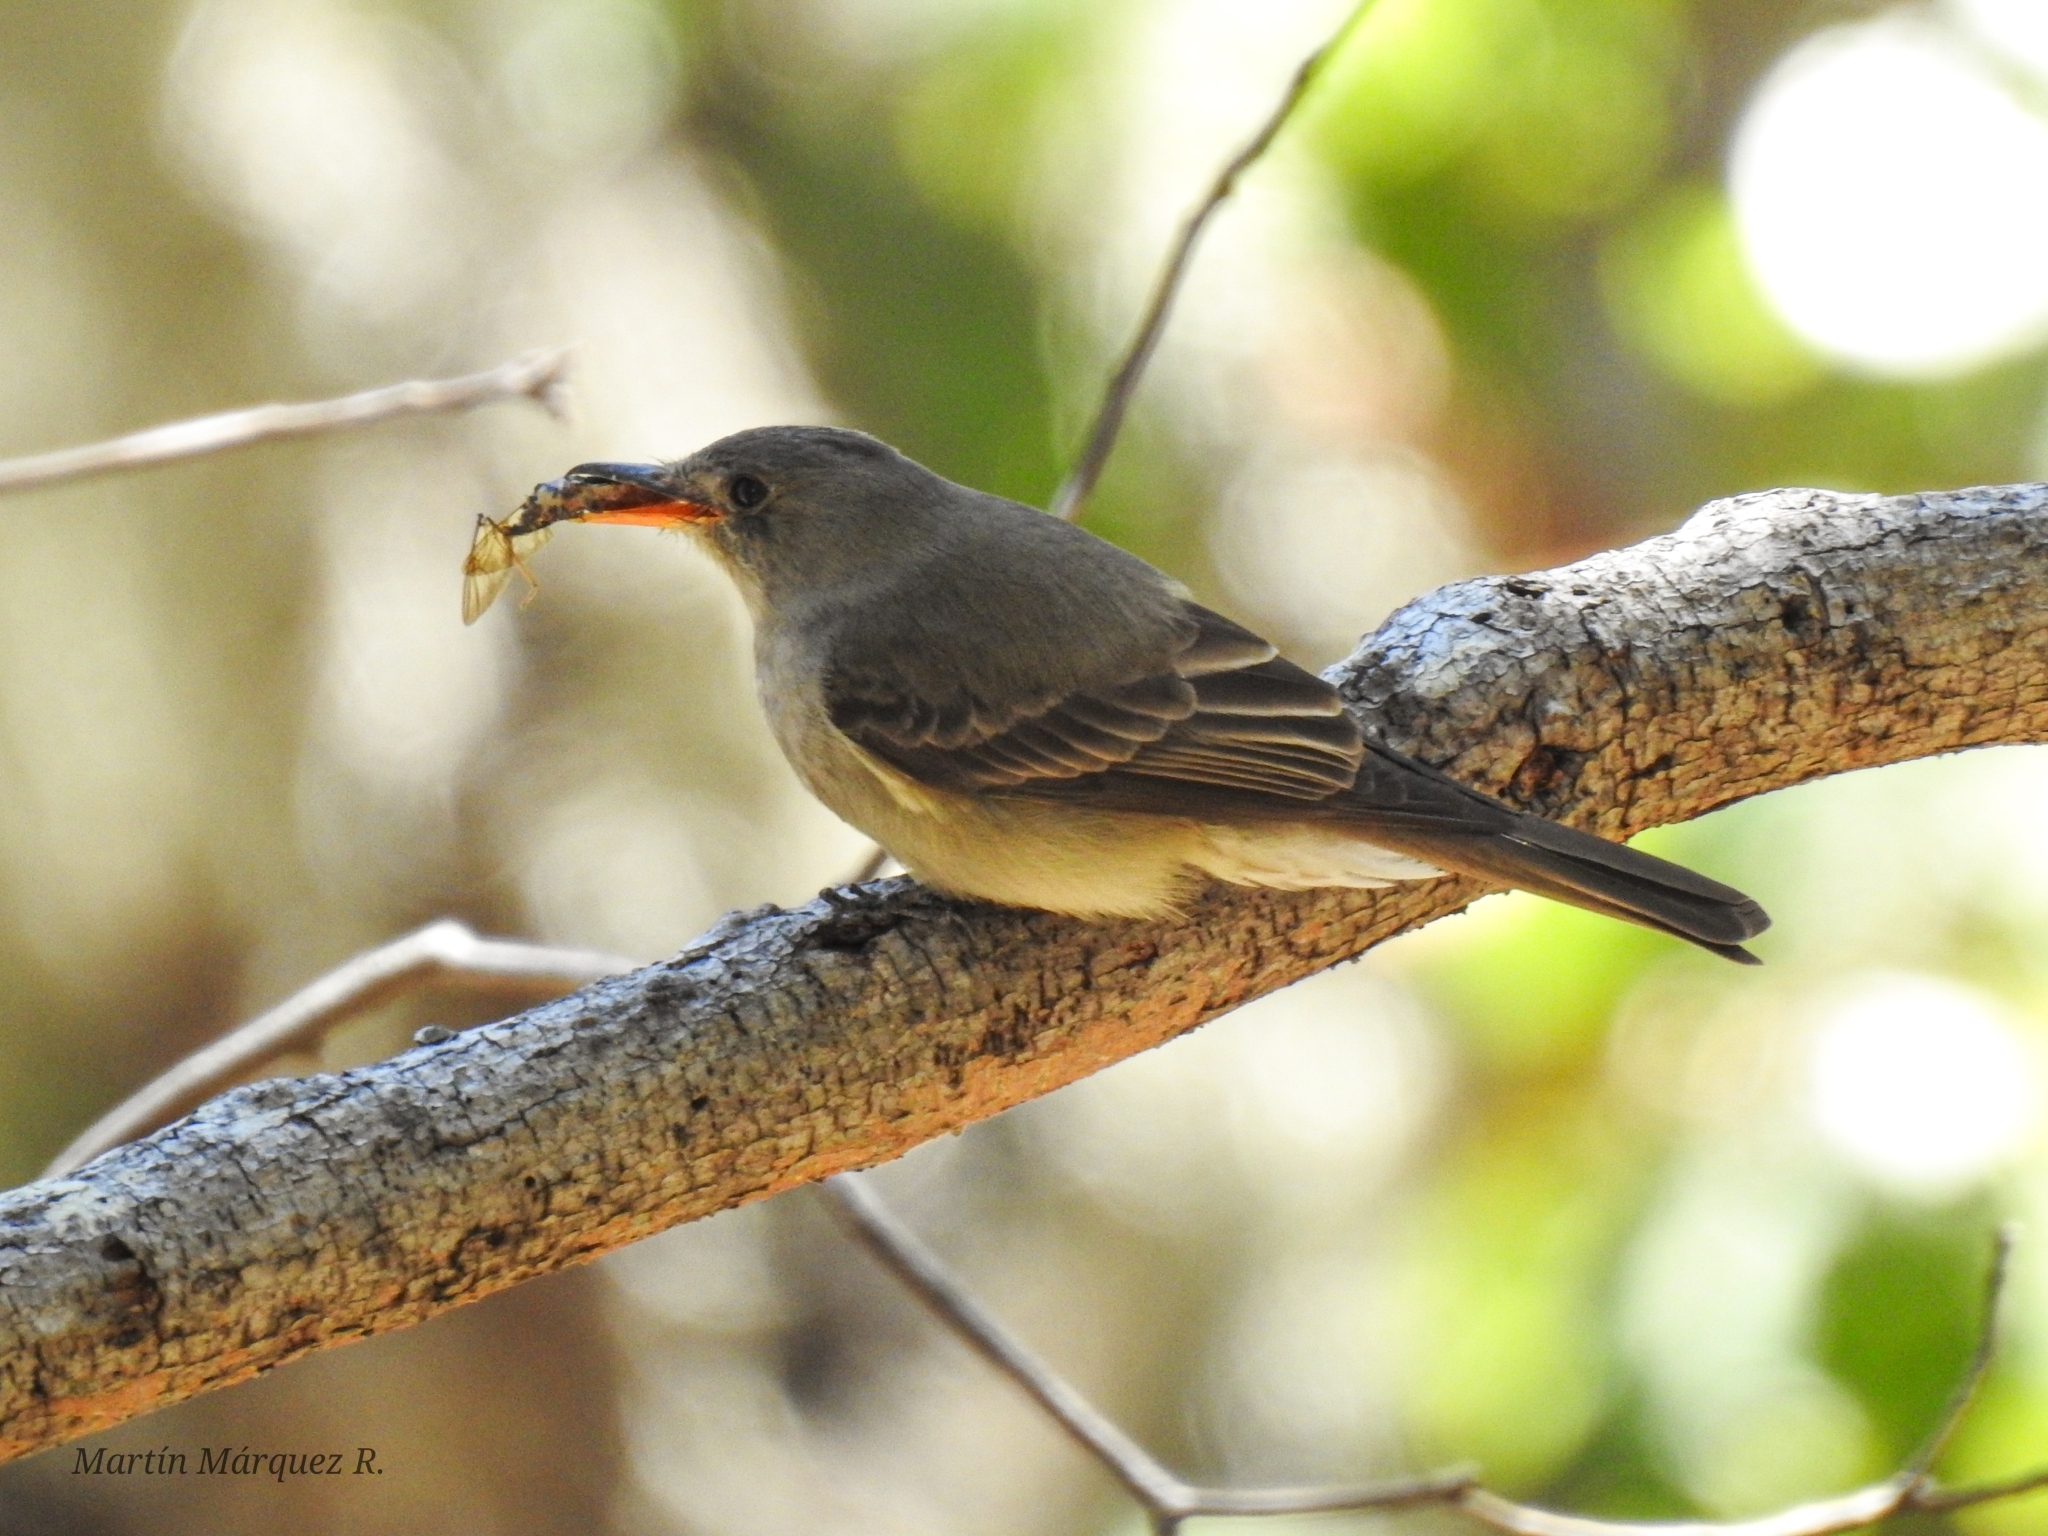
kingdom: Animalia
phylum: Chordata
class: Aves
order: Passeriformes
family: Tyrannidae
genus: Contopus
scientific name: Contopus pertinax
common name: Greater pewee
